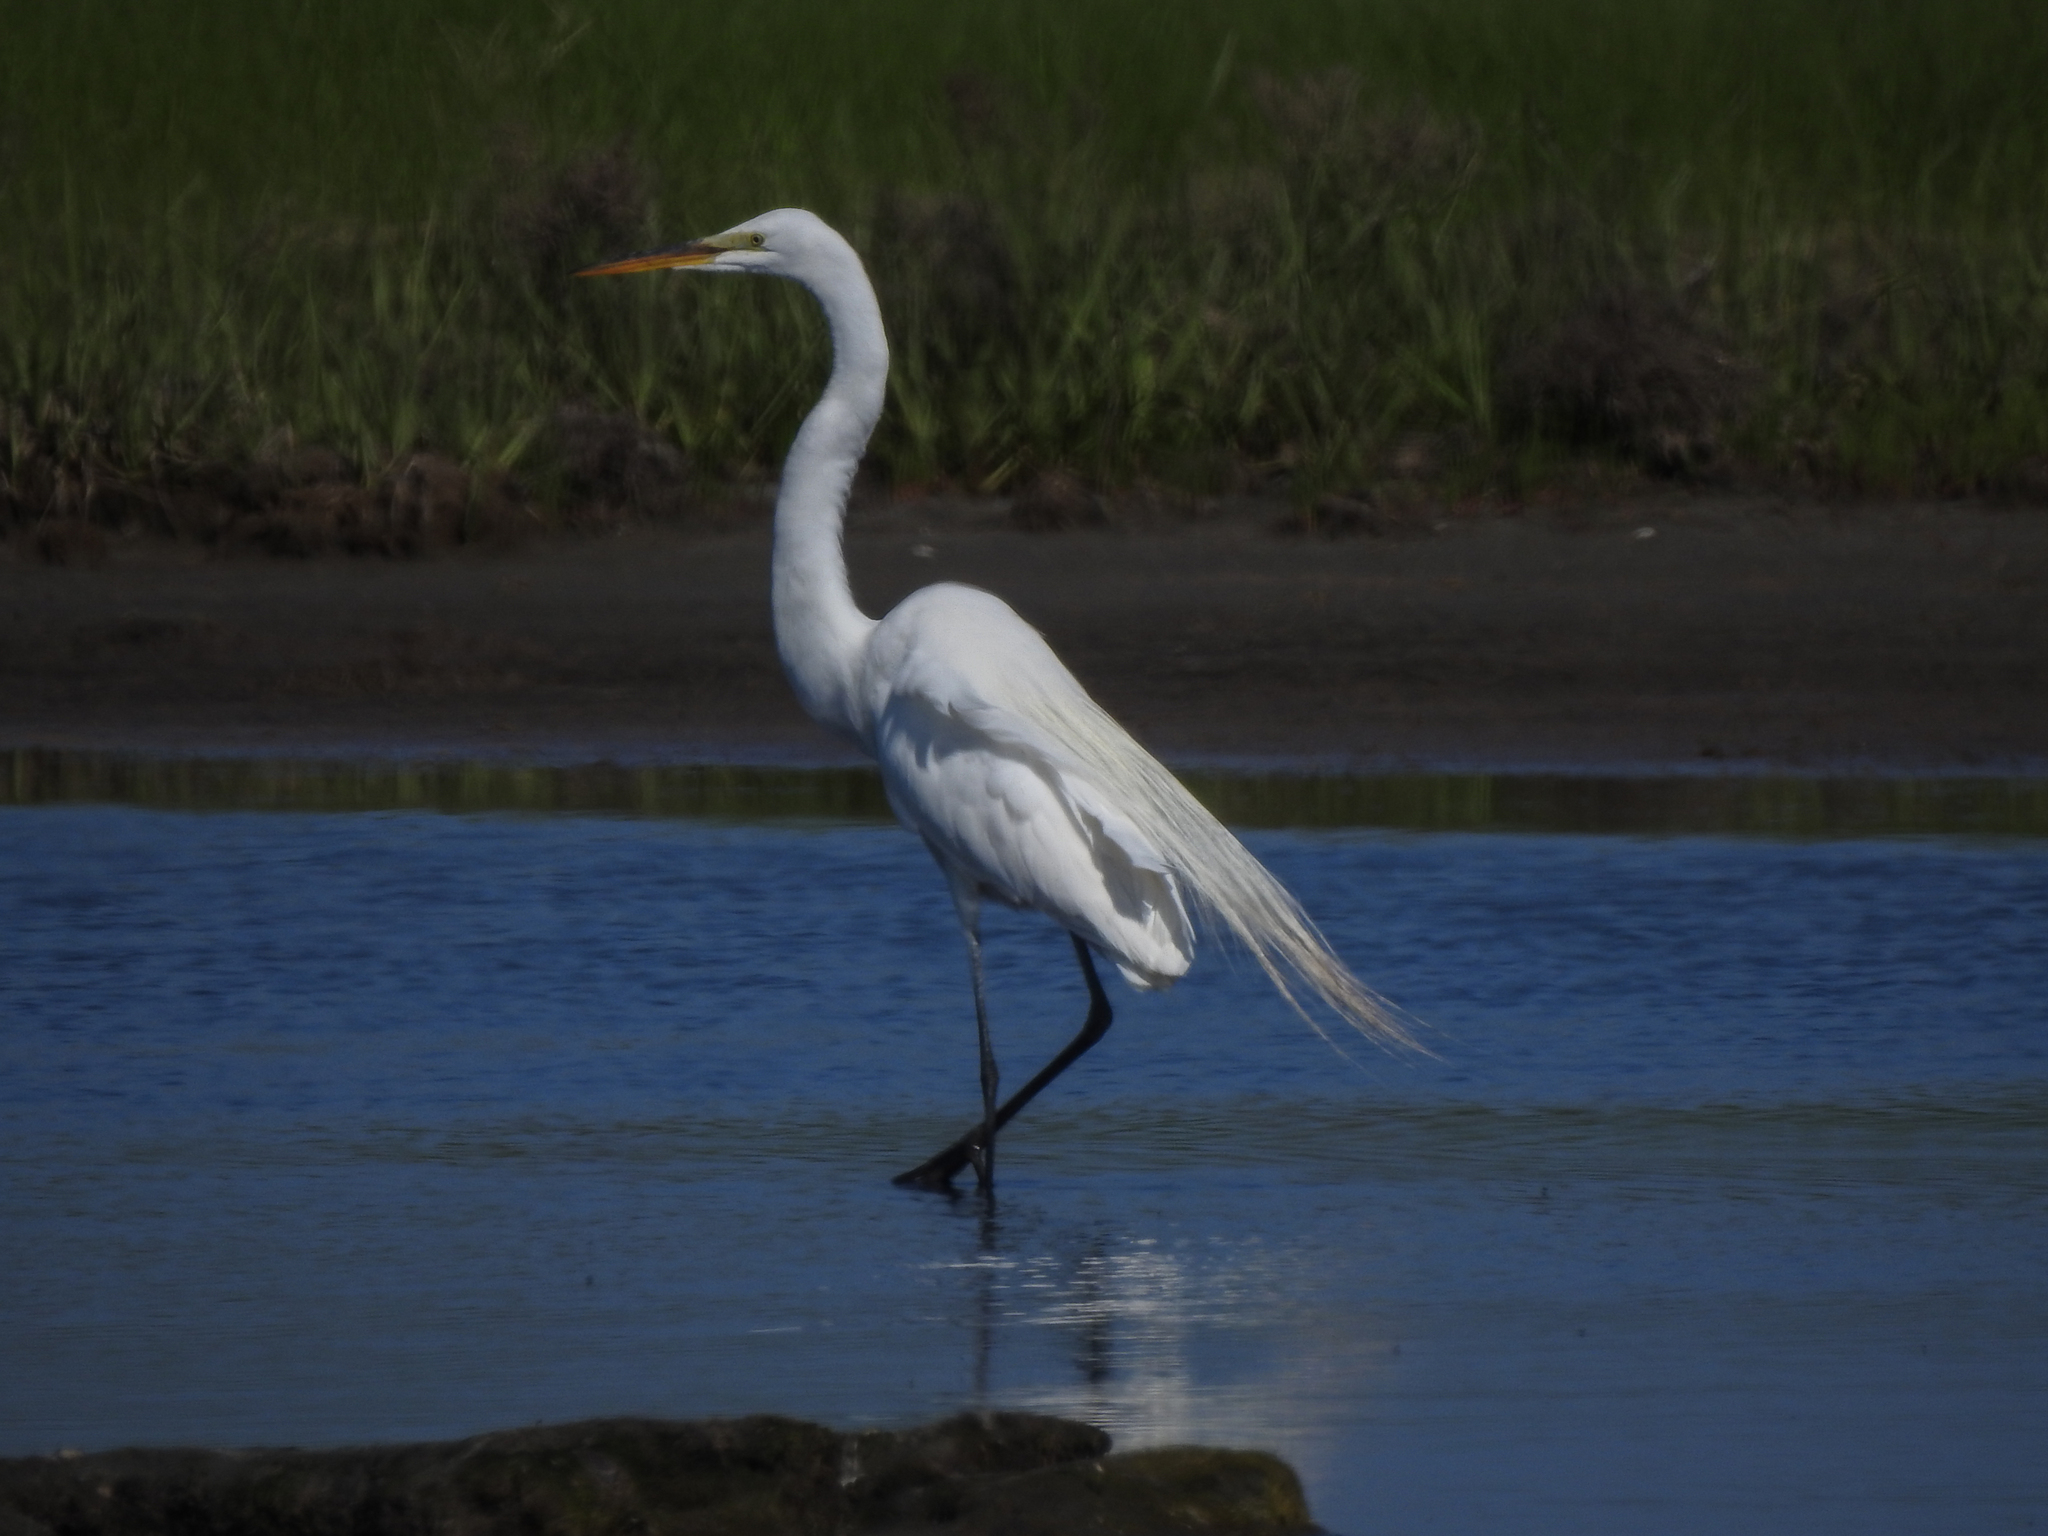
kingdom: Animalia
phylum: Chordata
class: Aves
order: Pelecaniformes
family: Ardeidae
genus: Ardea
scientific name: Ardea alba
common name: Great egret
